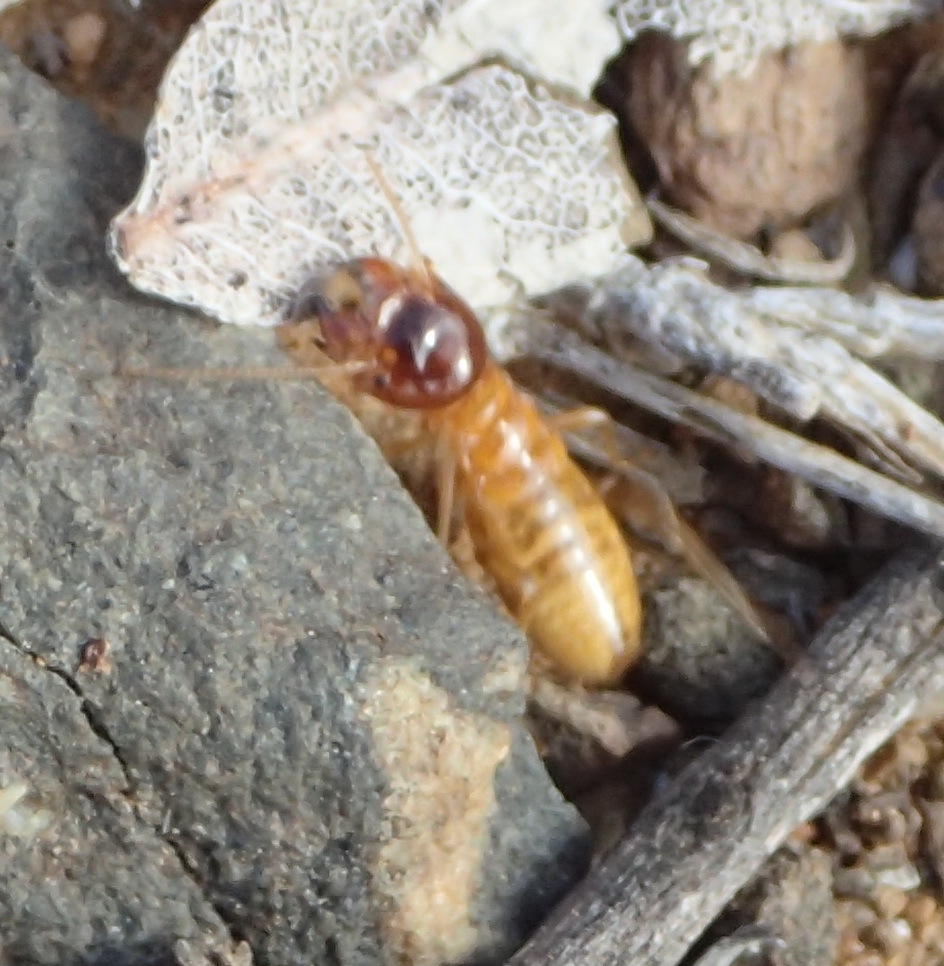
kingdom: Animalia
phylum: Arthropoda
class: Insecta
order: Blattodea
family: Hodotermitidae
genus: Microhodotermes
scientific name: Microhodotermes viator
